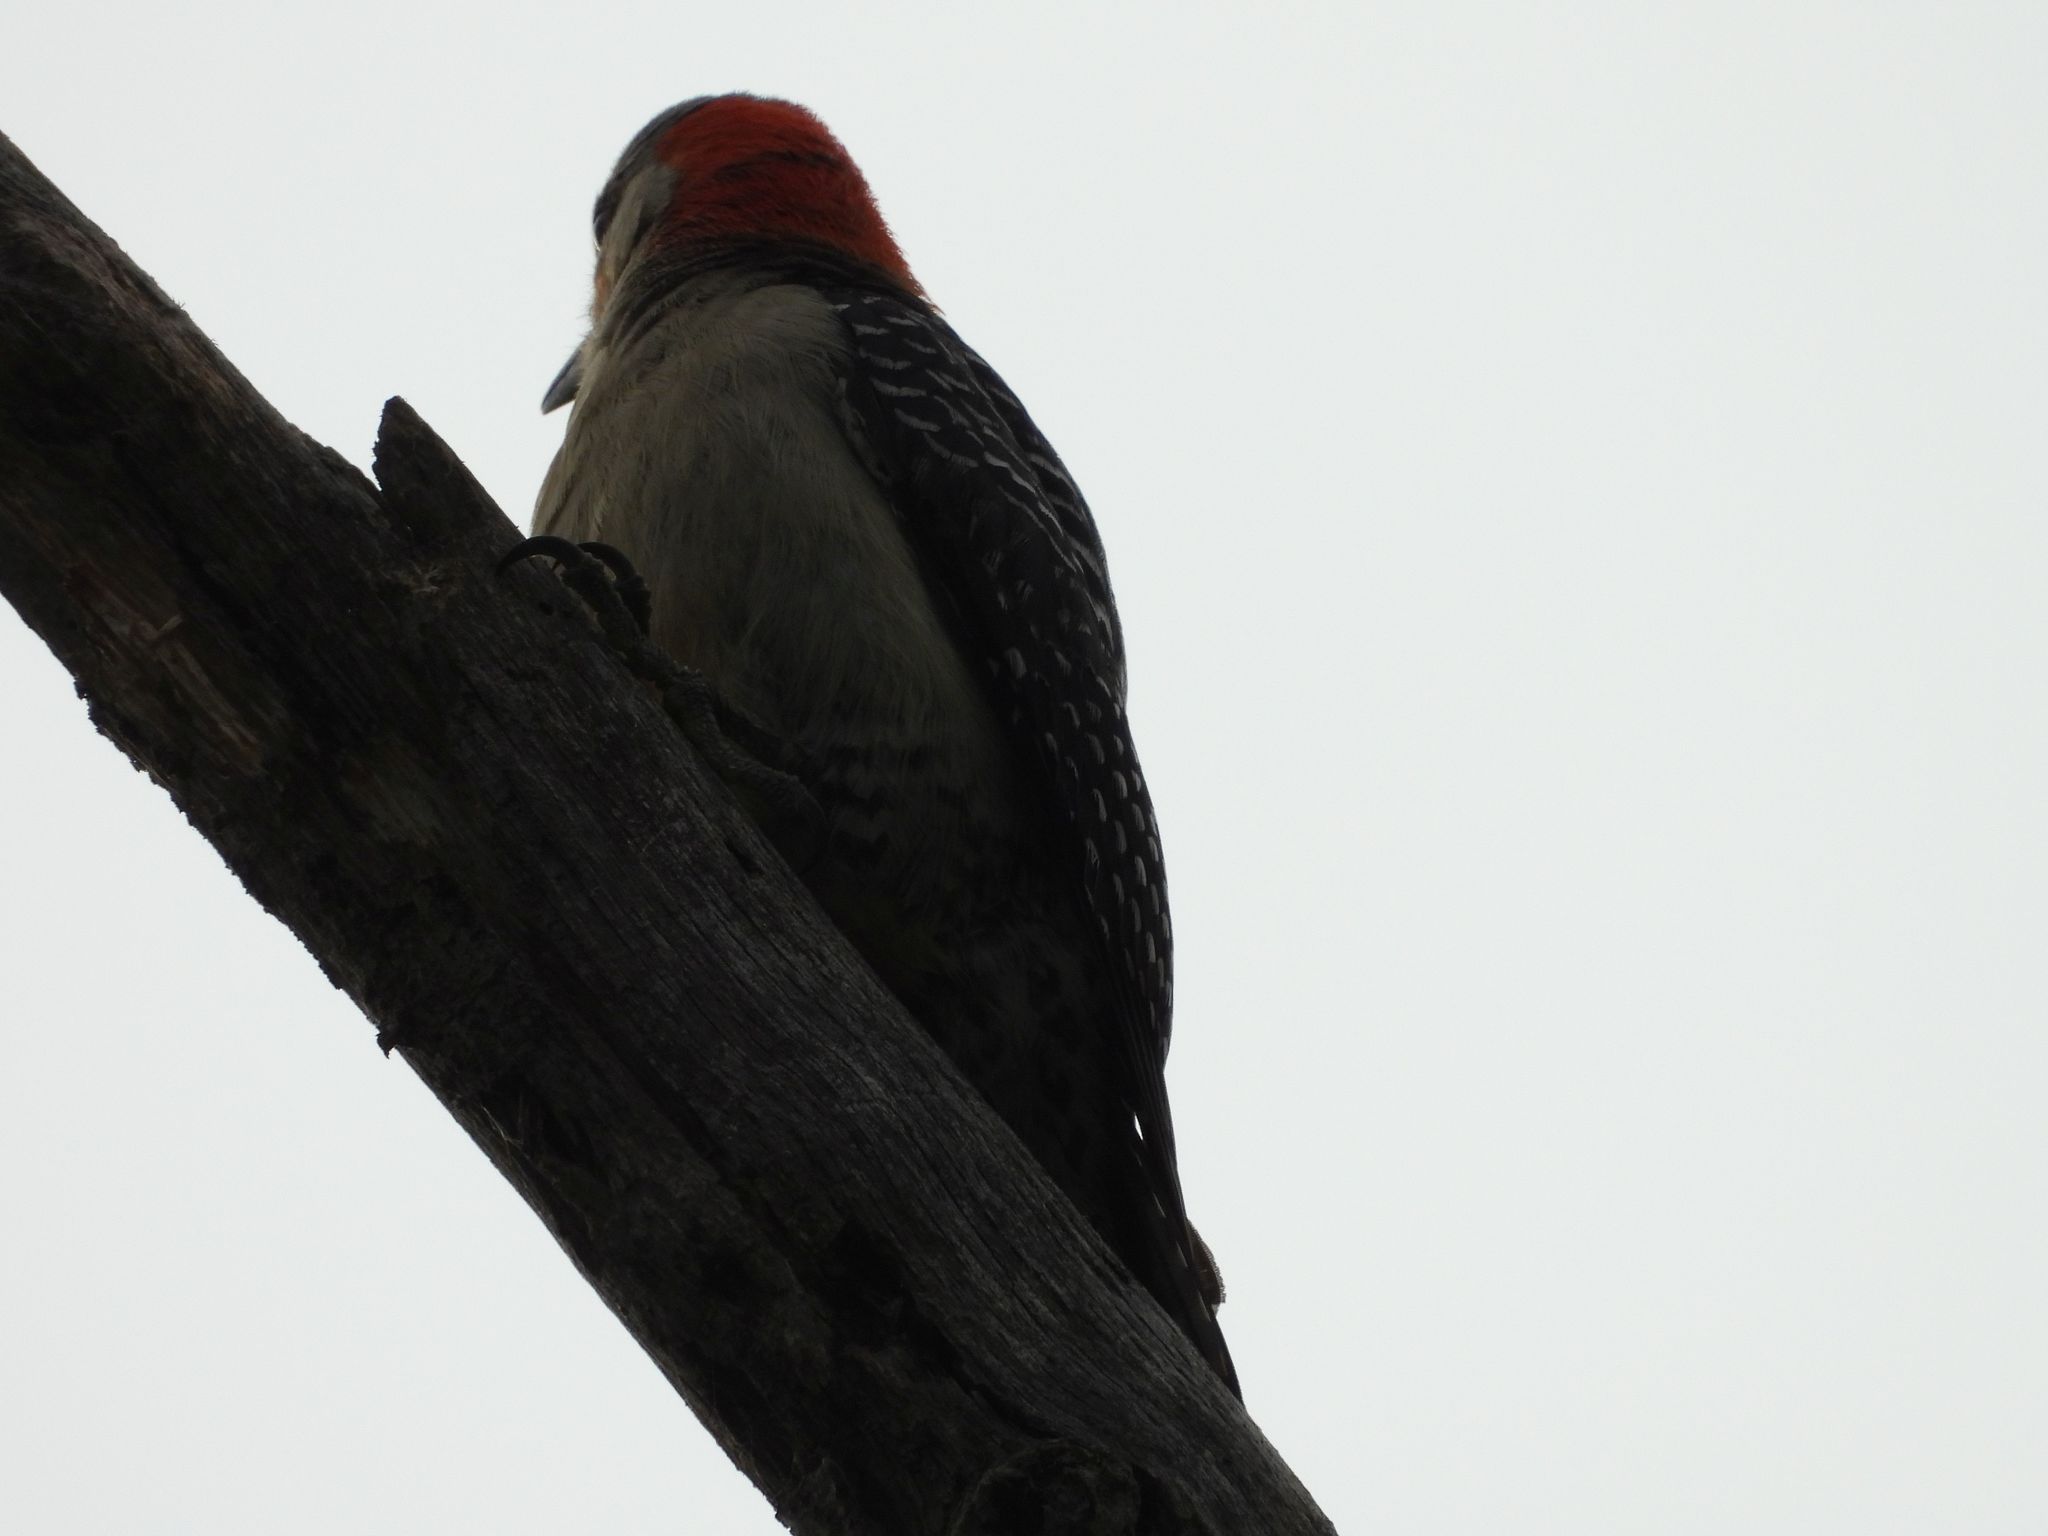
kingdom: Animalia
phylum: Chordata
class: Aves
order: Piciformes
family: Picidae
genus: Melanerpes
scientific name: Melanerpes carolinus
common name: Red-bellied woodpecker
